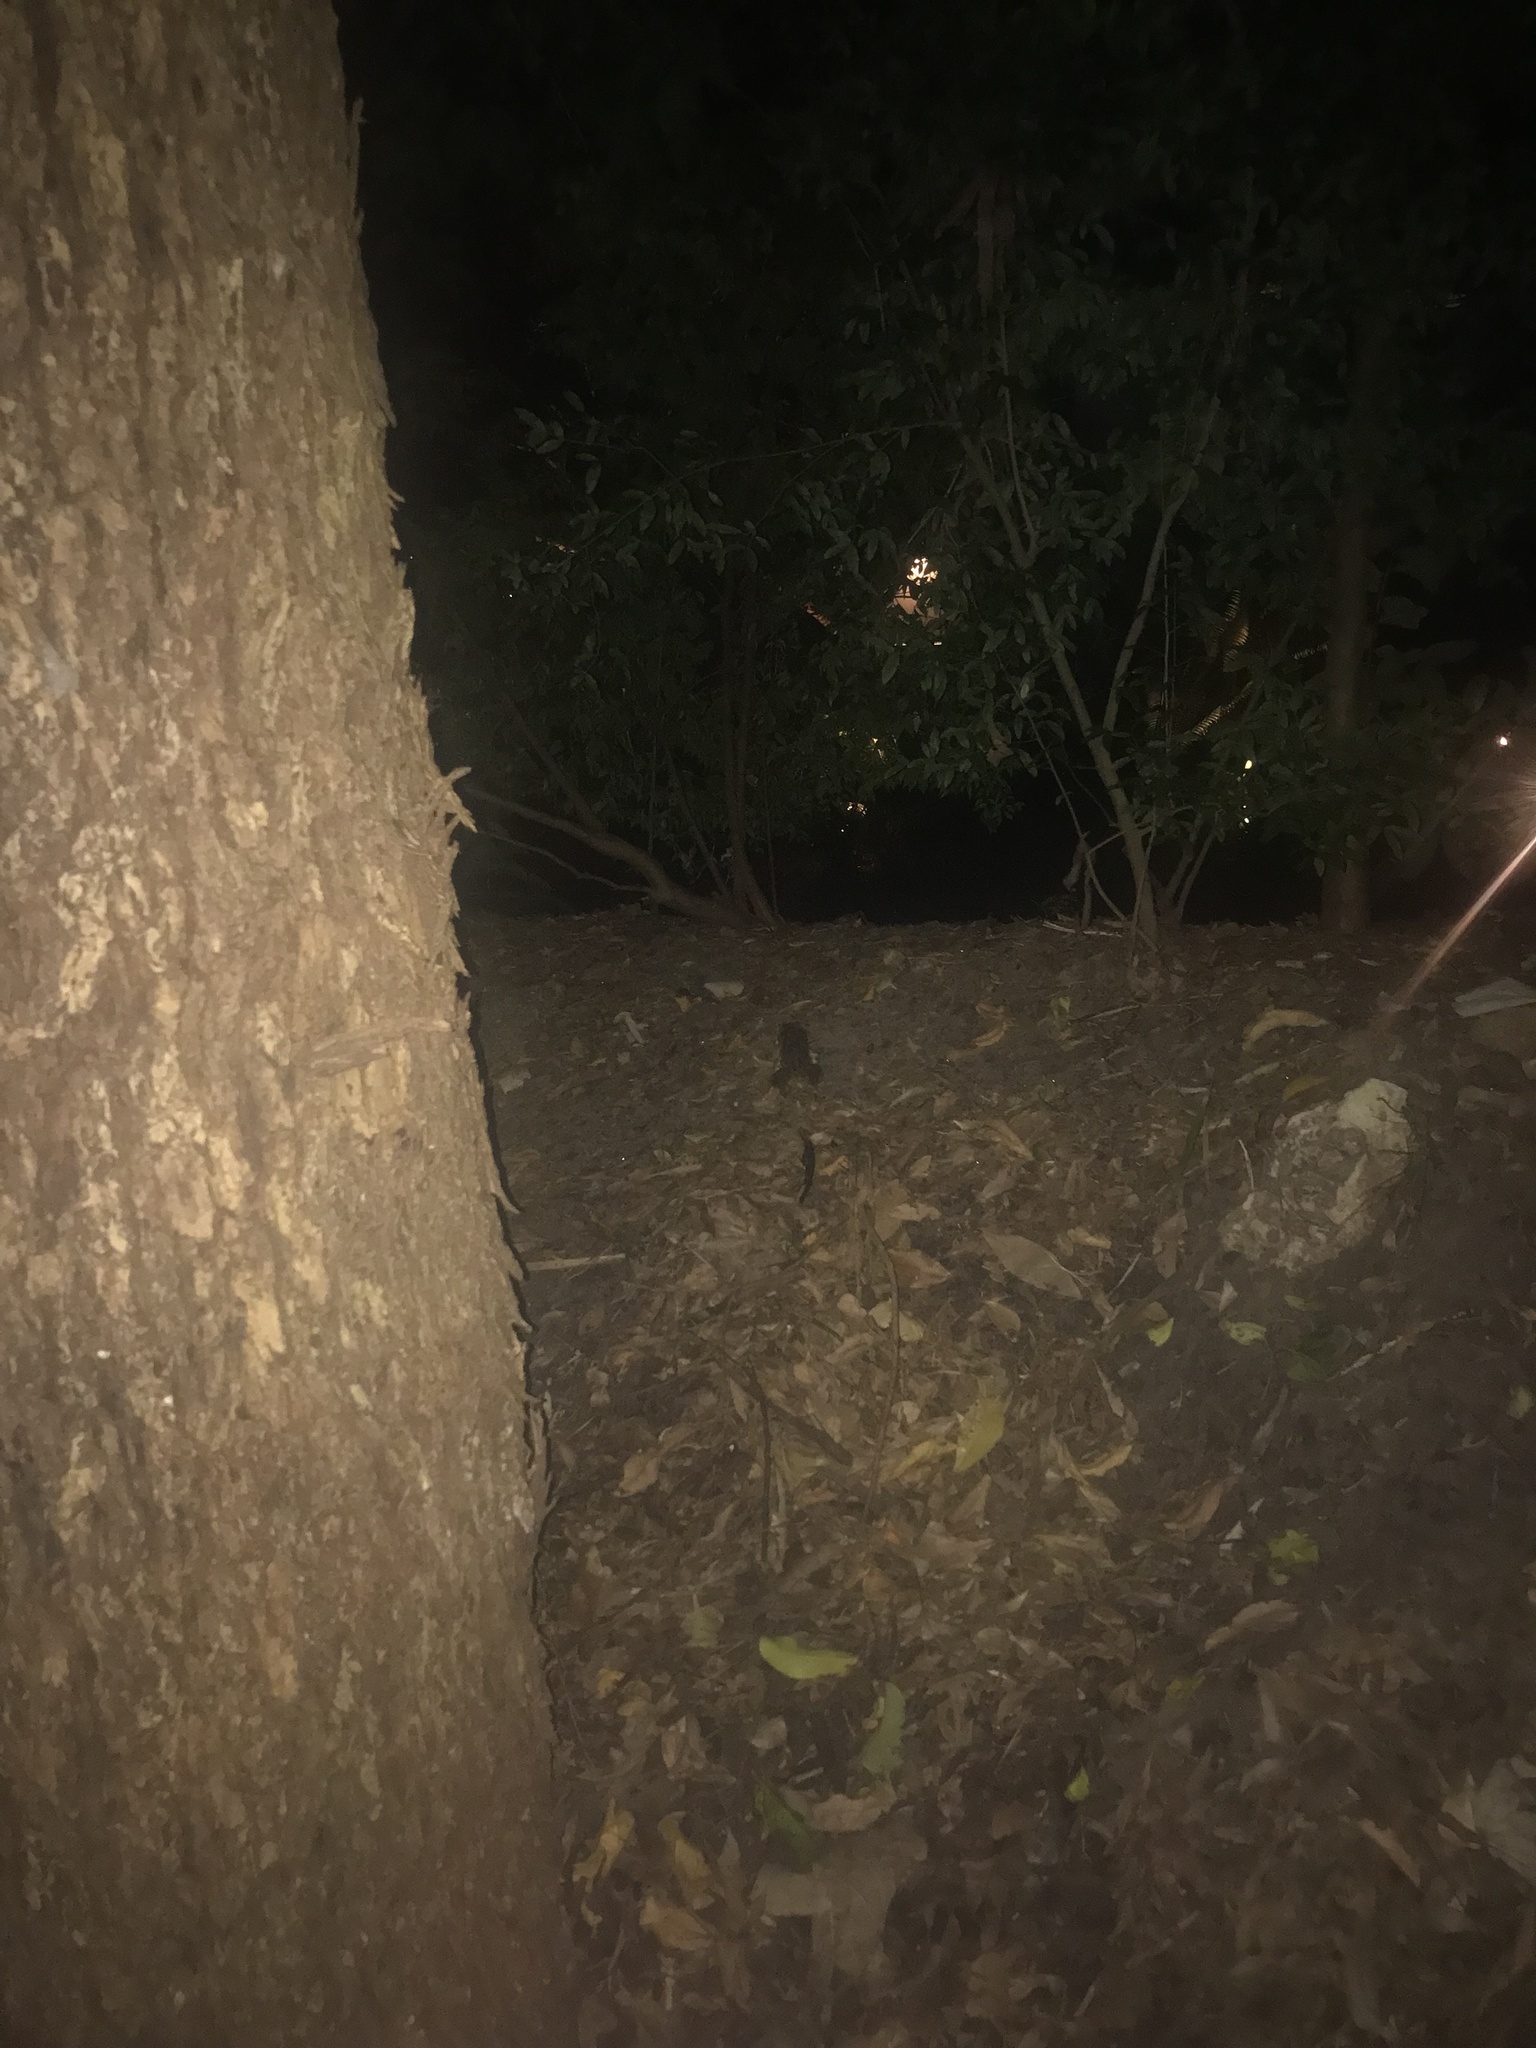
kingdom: Animalia
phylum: Chordata
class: Amphibia
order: Anura
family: Bufonidae
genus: Rhinella
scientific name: Rhinella marina
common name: Cane toad
